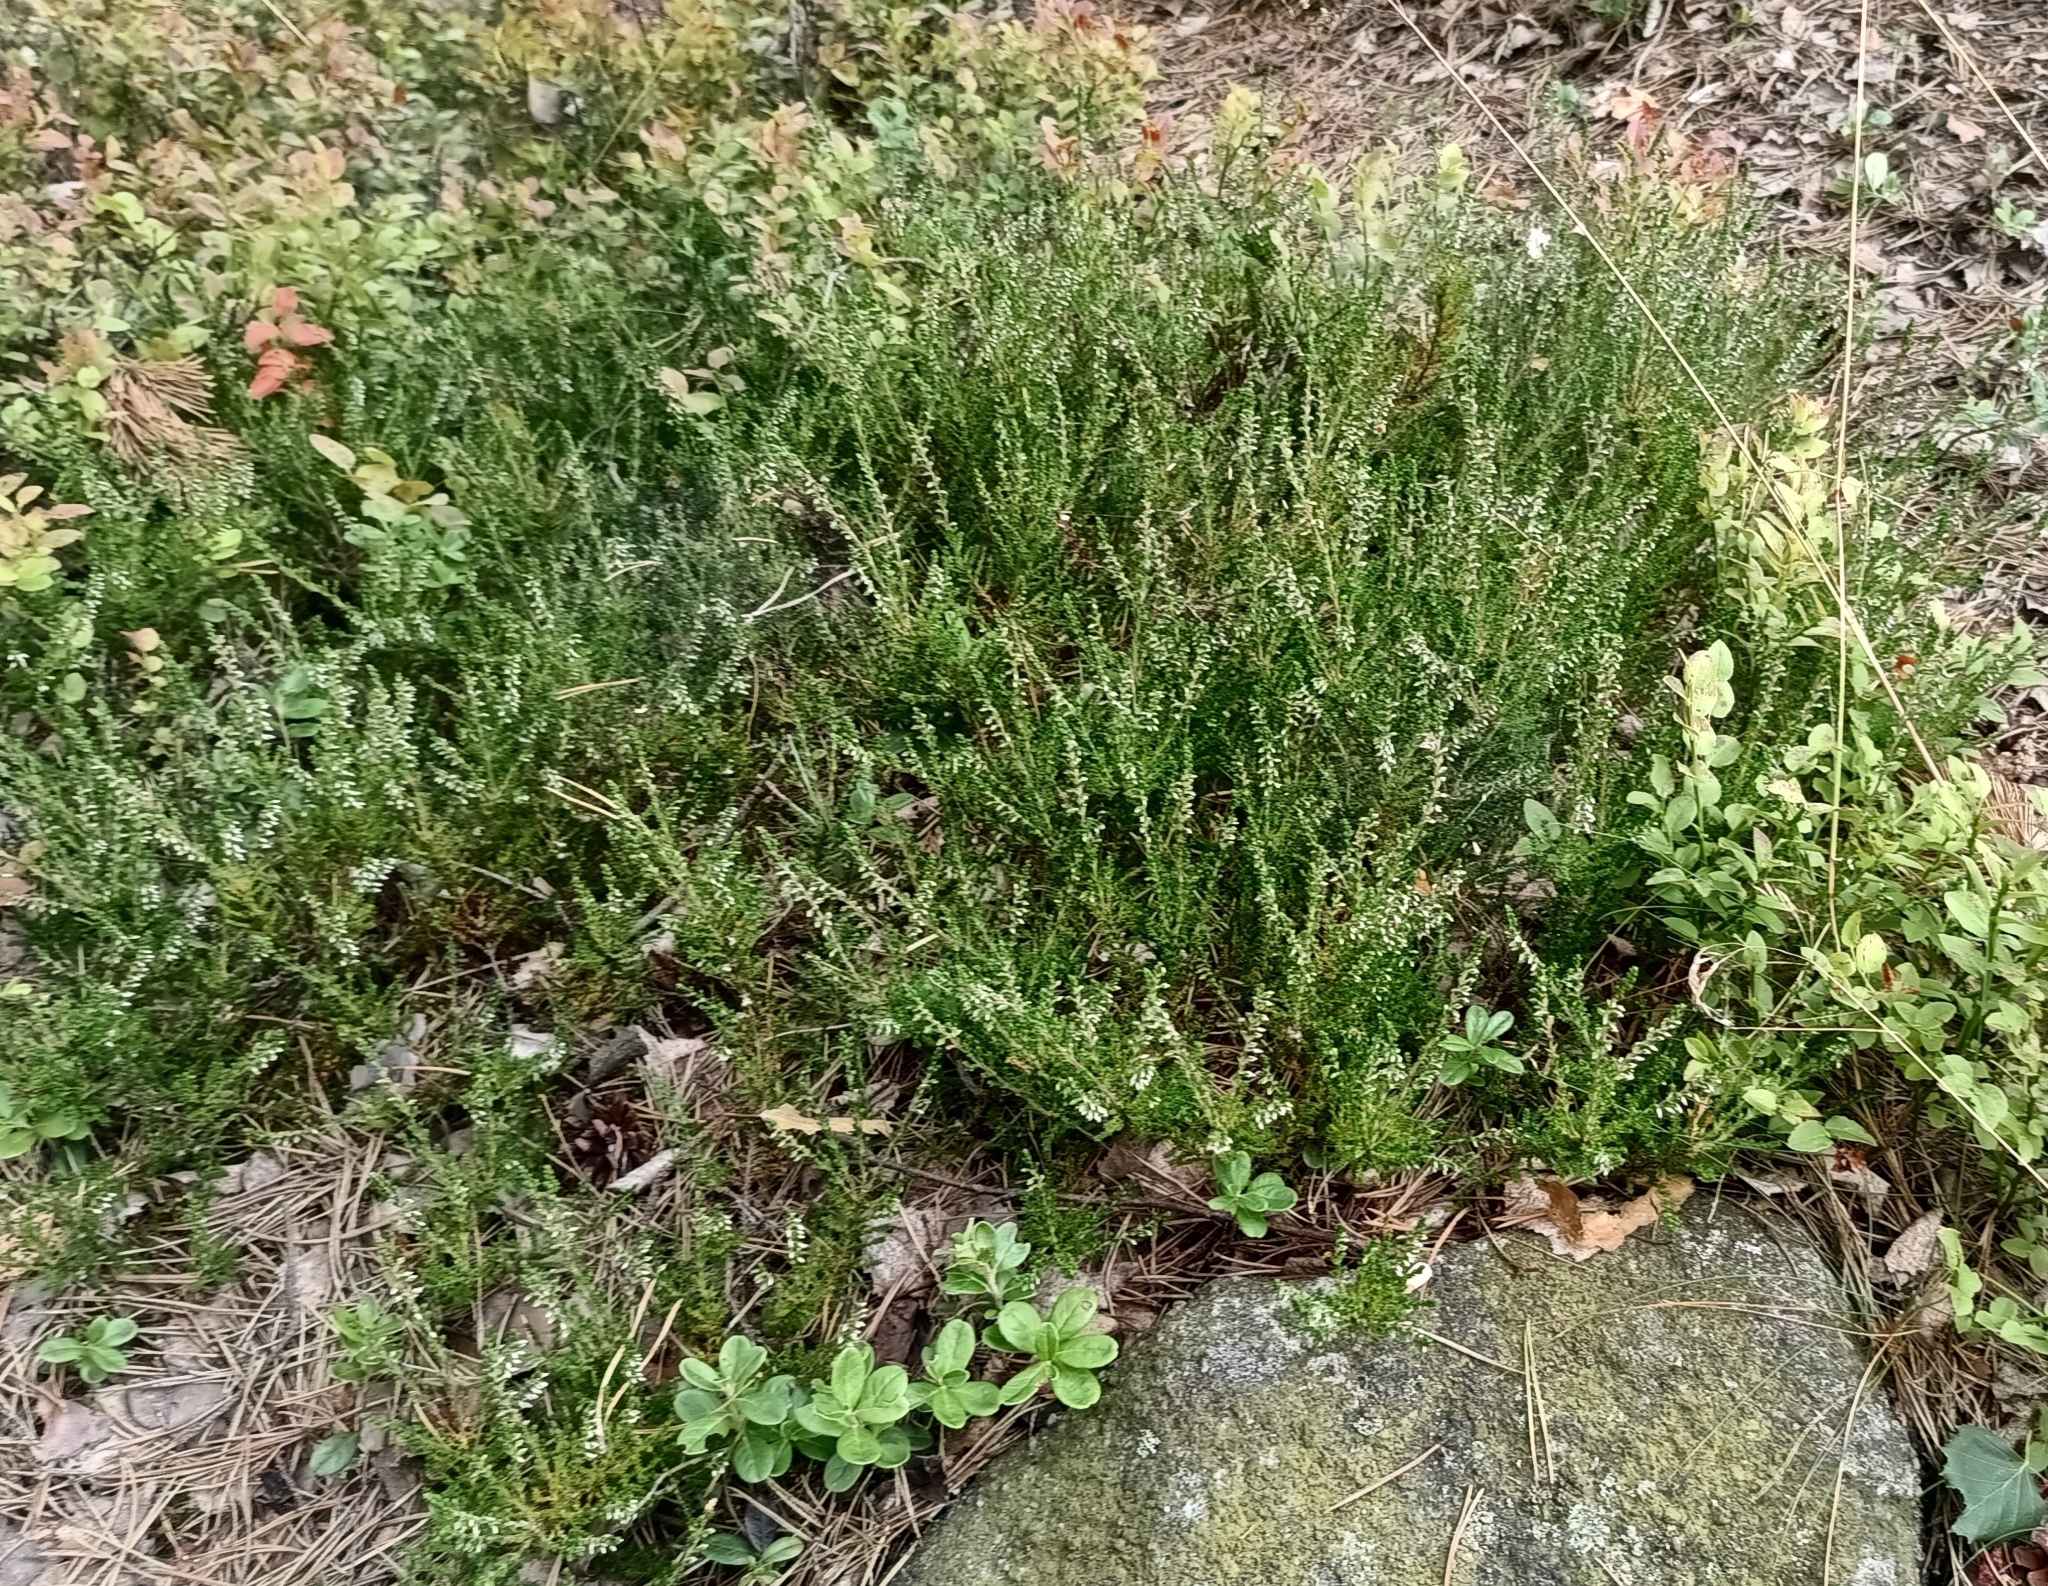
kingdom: Plantae
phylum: Tracheophyta
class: Magnoliopsida
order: Ericales
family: Ericaceae
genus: Calluna
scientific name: Calluna vulgaris
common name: Heather
